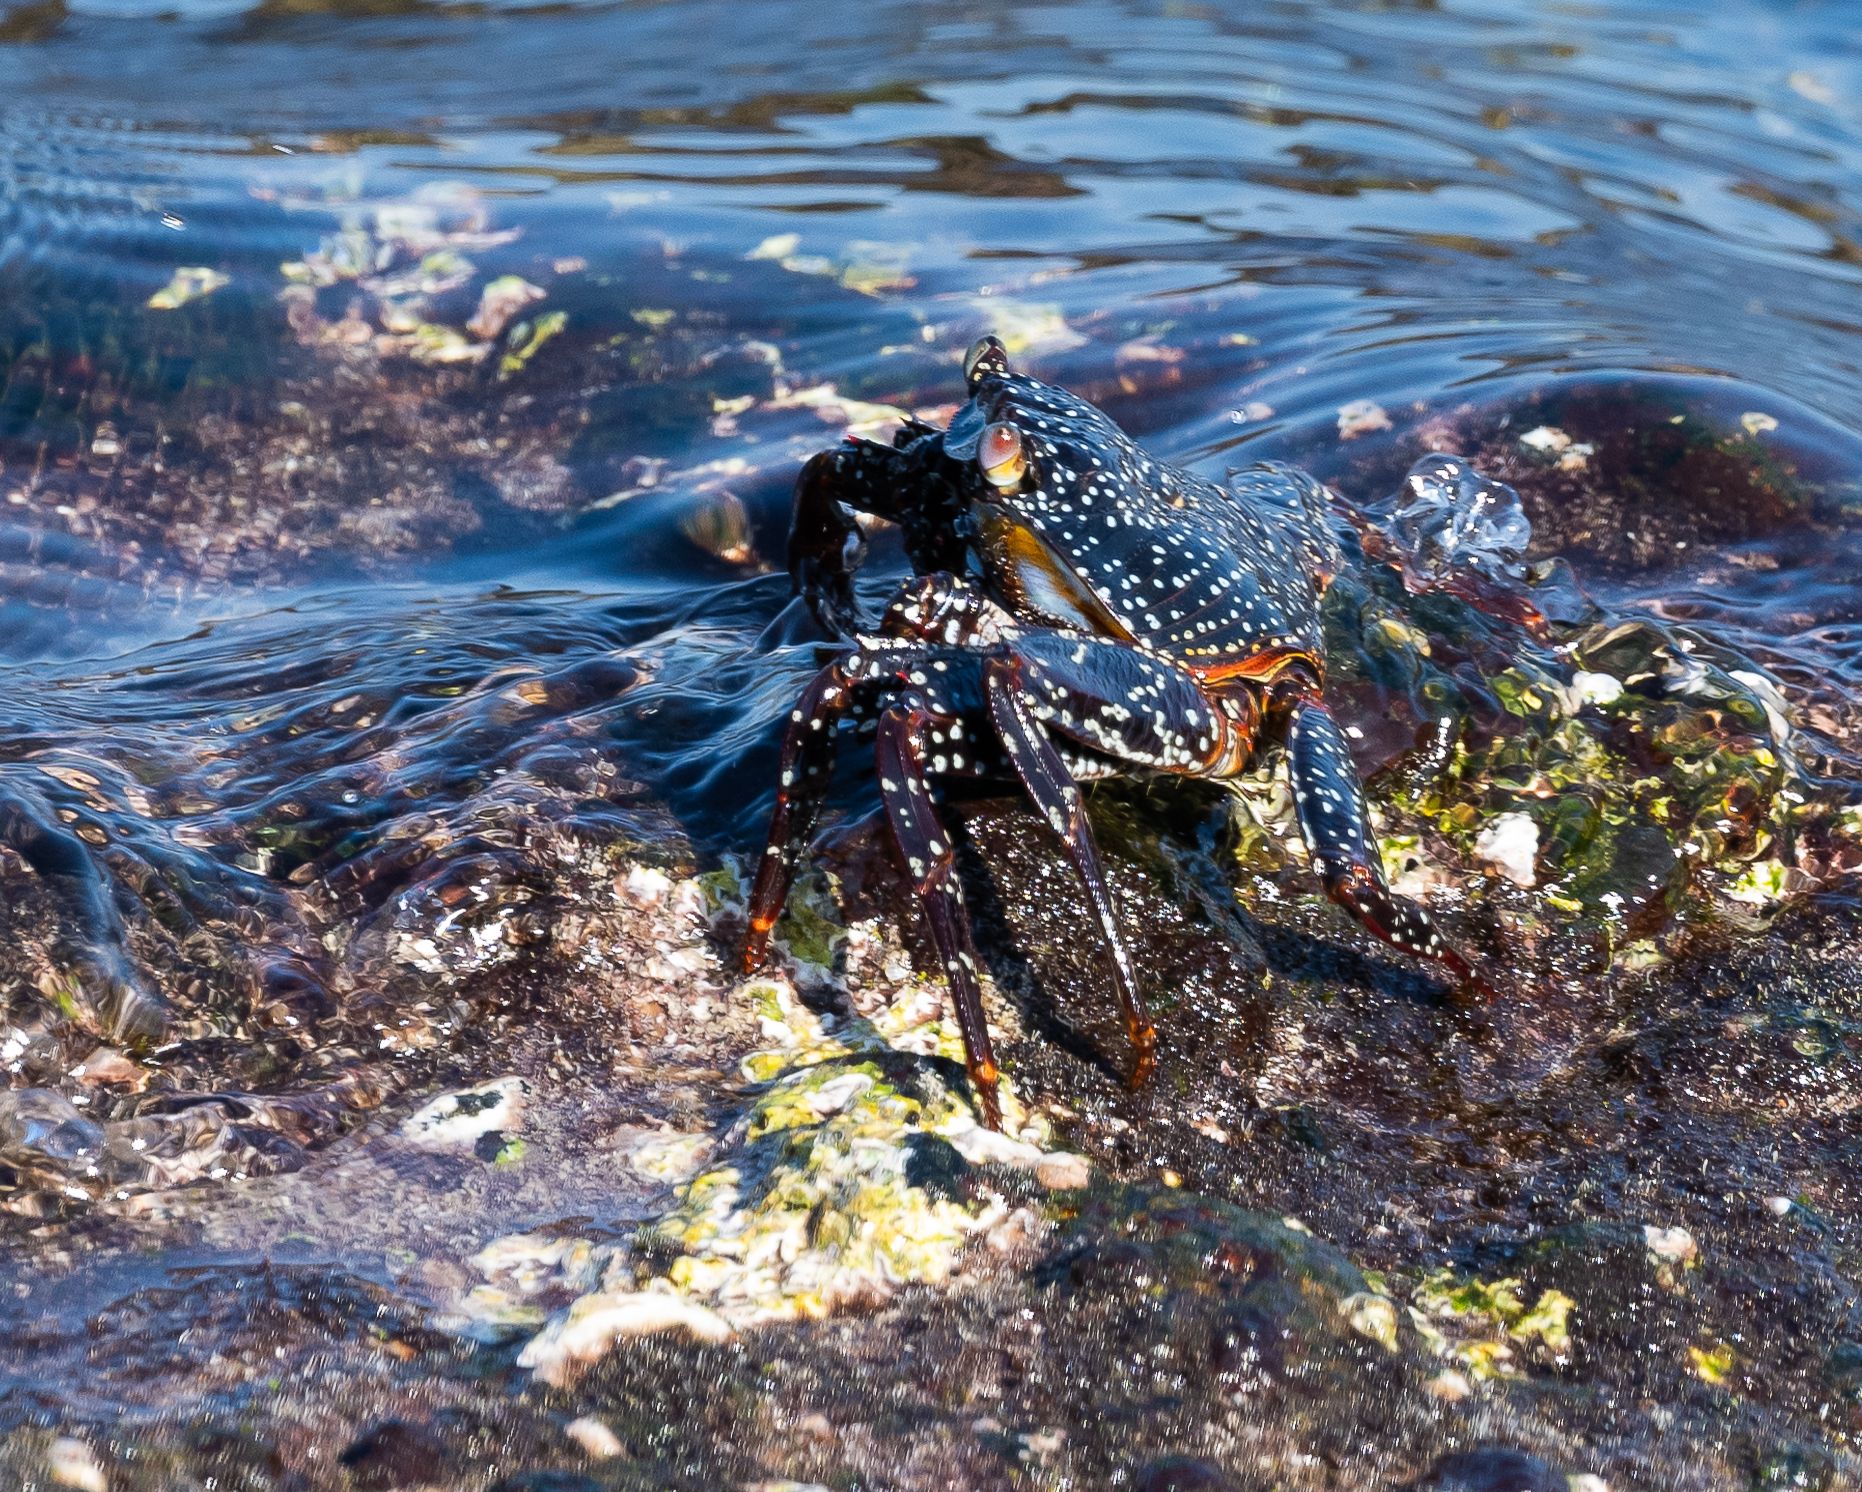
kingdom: Animalia
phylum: Arthropoda
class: Malacostraca
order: Decapoda
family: Grapsidae
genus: Grapsus
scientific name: Grapsus grapsus
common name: Sally lightfoot
